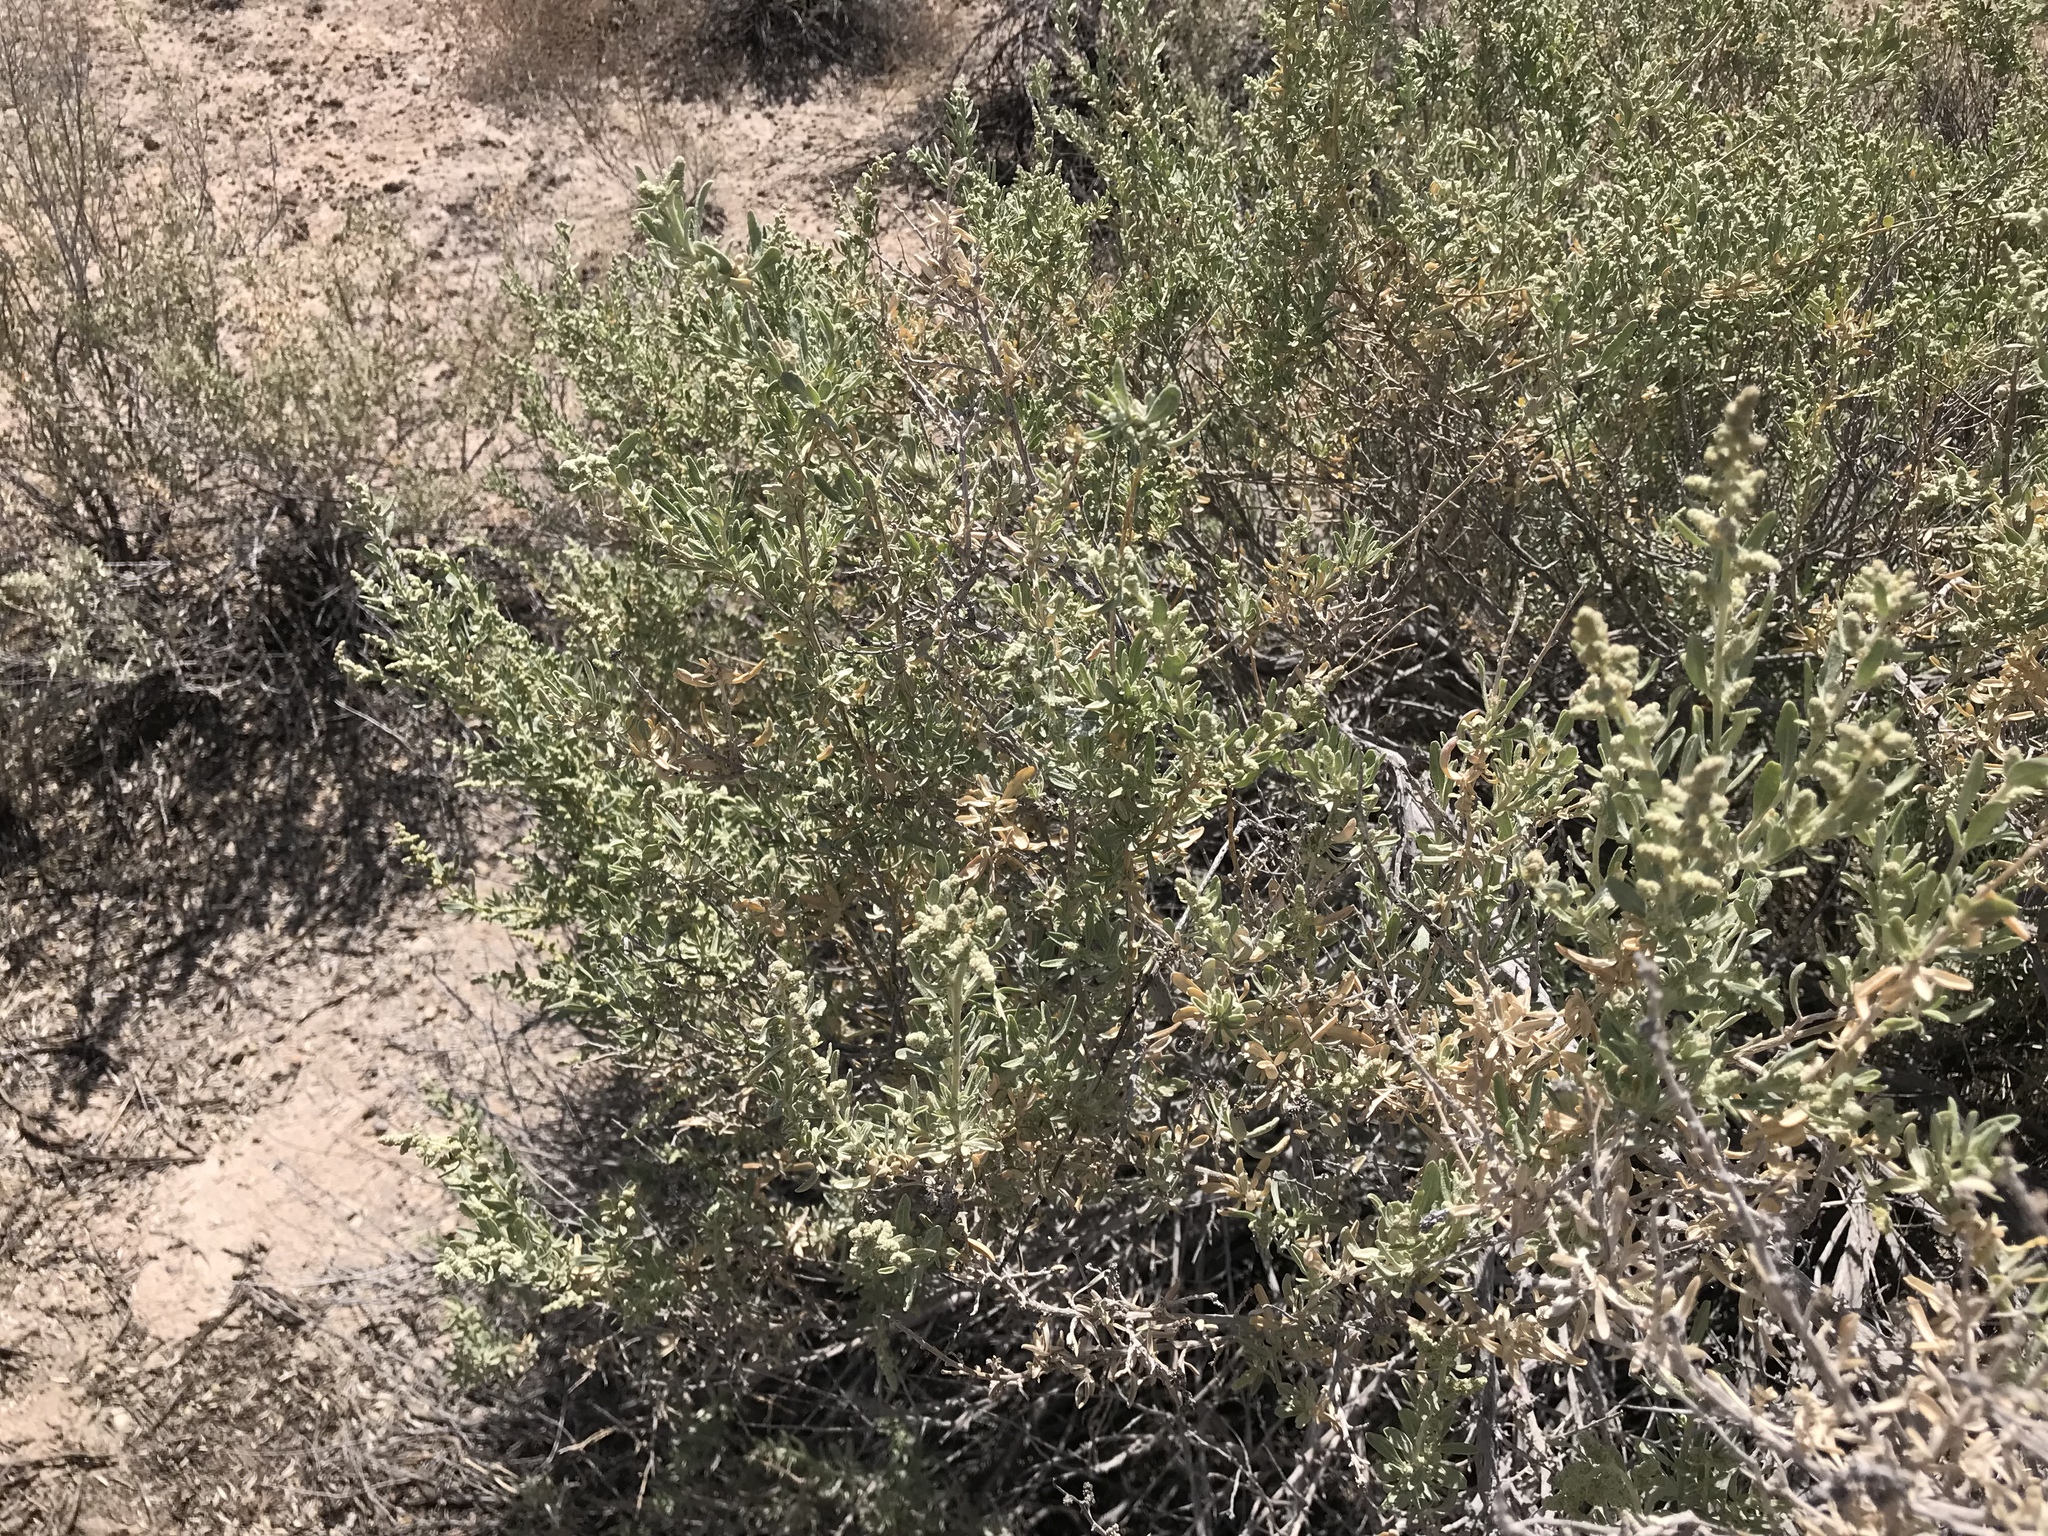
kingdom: Plantae
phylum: Tracheophyta
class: Magnoliopsida
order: Caryophyllales
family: Amaranthaceae
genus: Atriplex
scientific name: Atriplex canescens
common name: Four-wing saltbush
